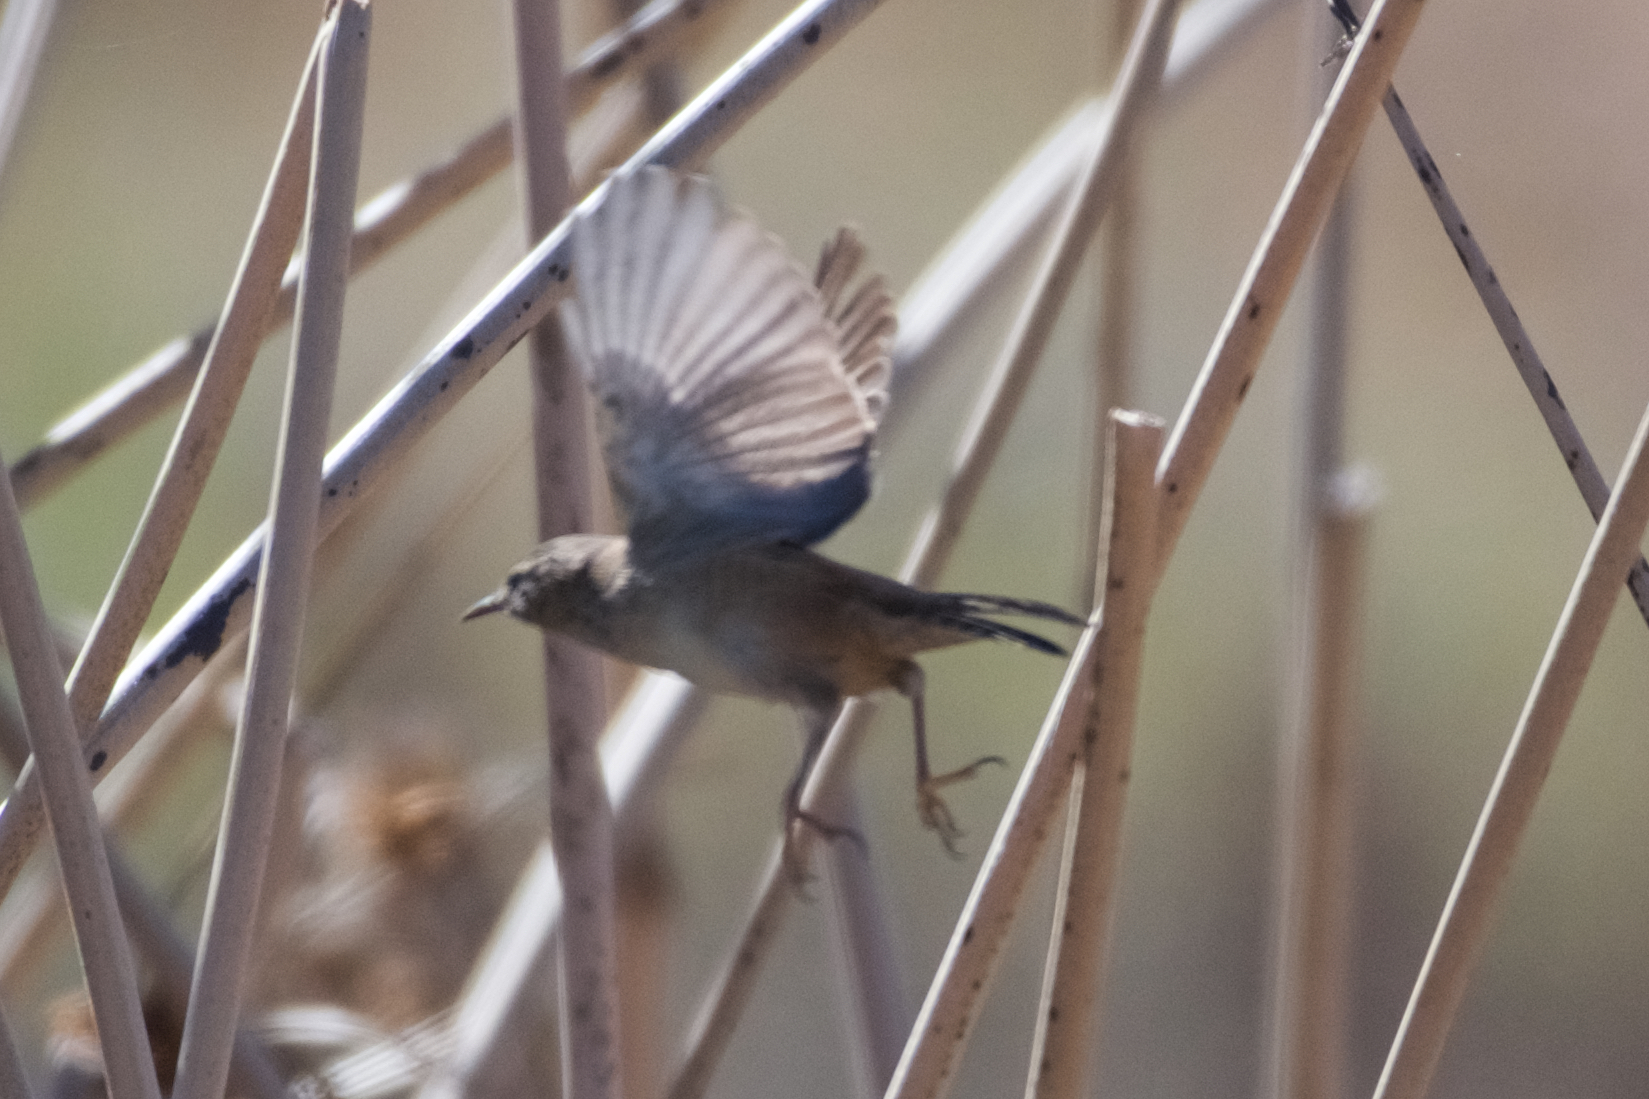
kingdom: Animalia
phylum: Chordata
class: Aves
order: Passeriformes
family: Troglodytidae
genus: Cistothorus
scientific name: Cistothorus palustris
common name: Marsh wren
